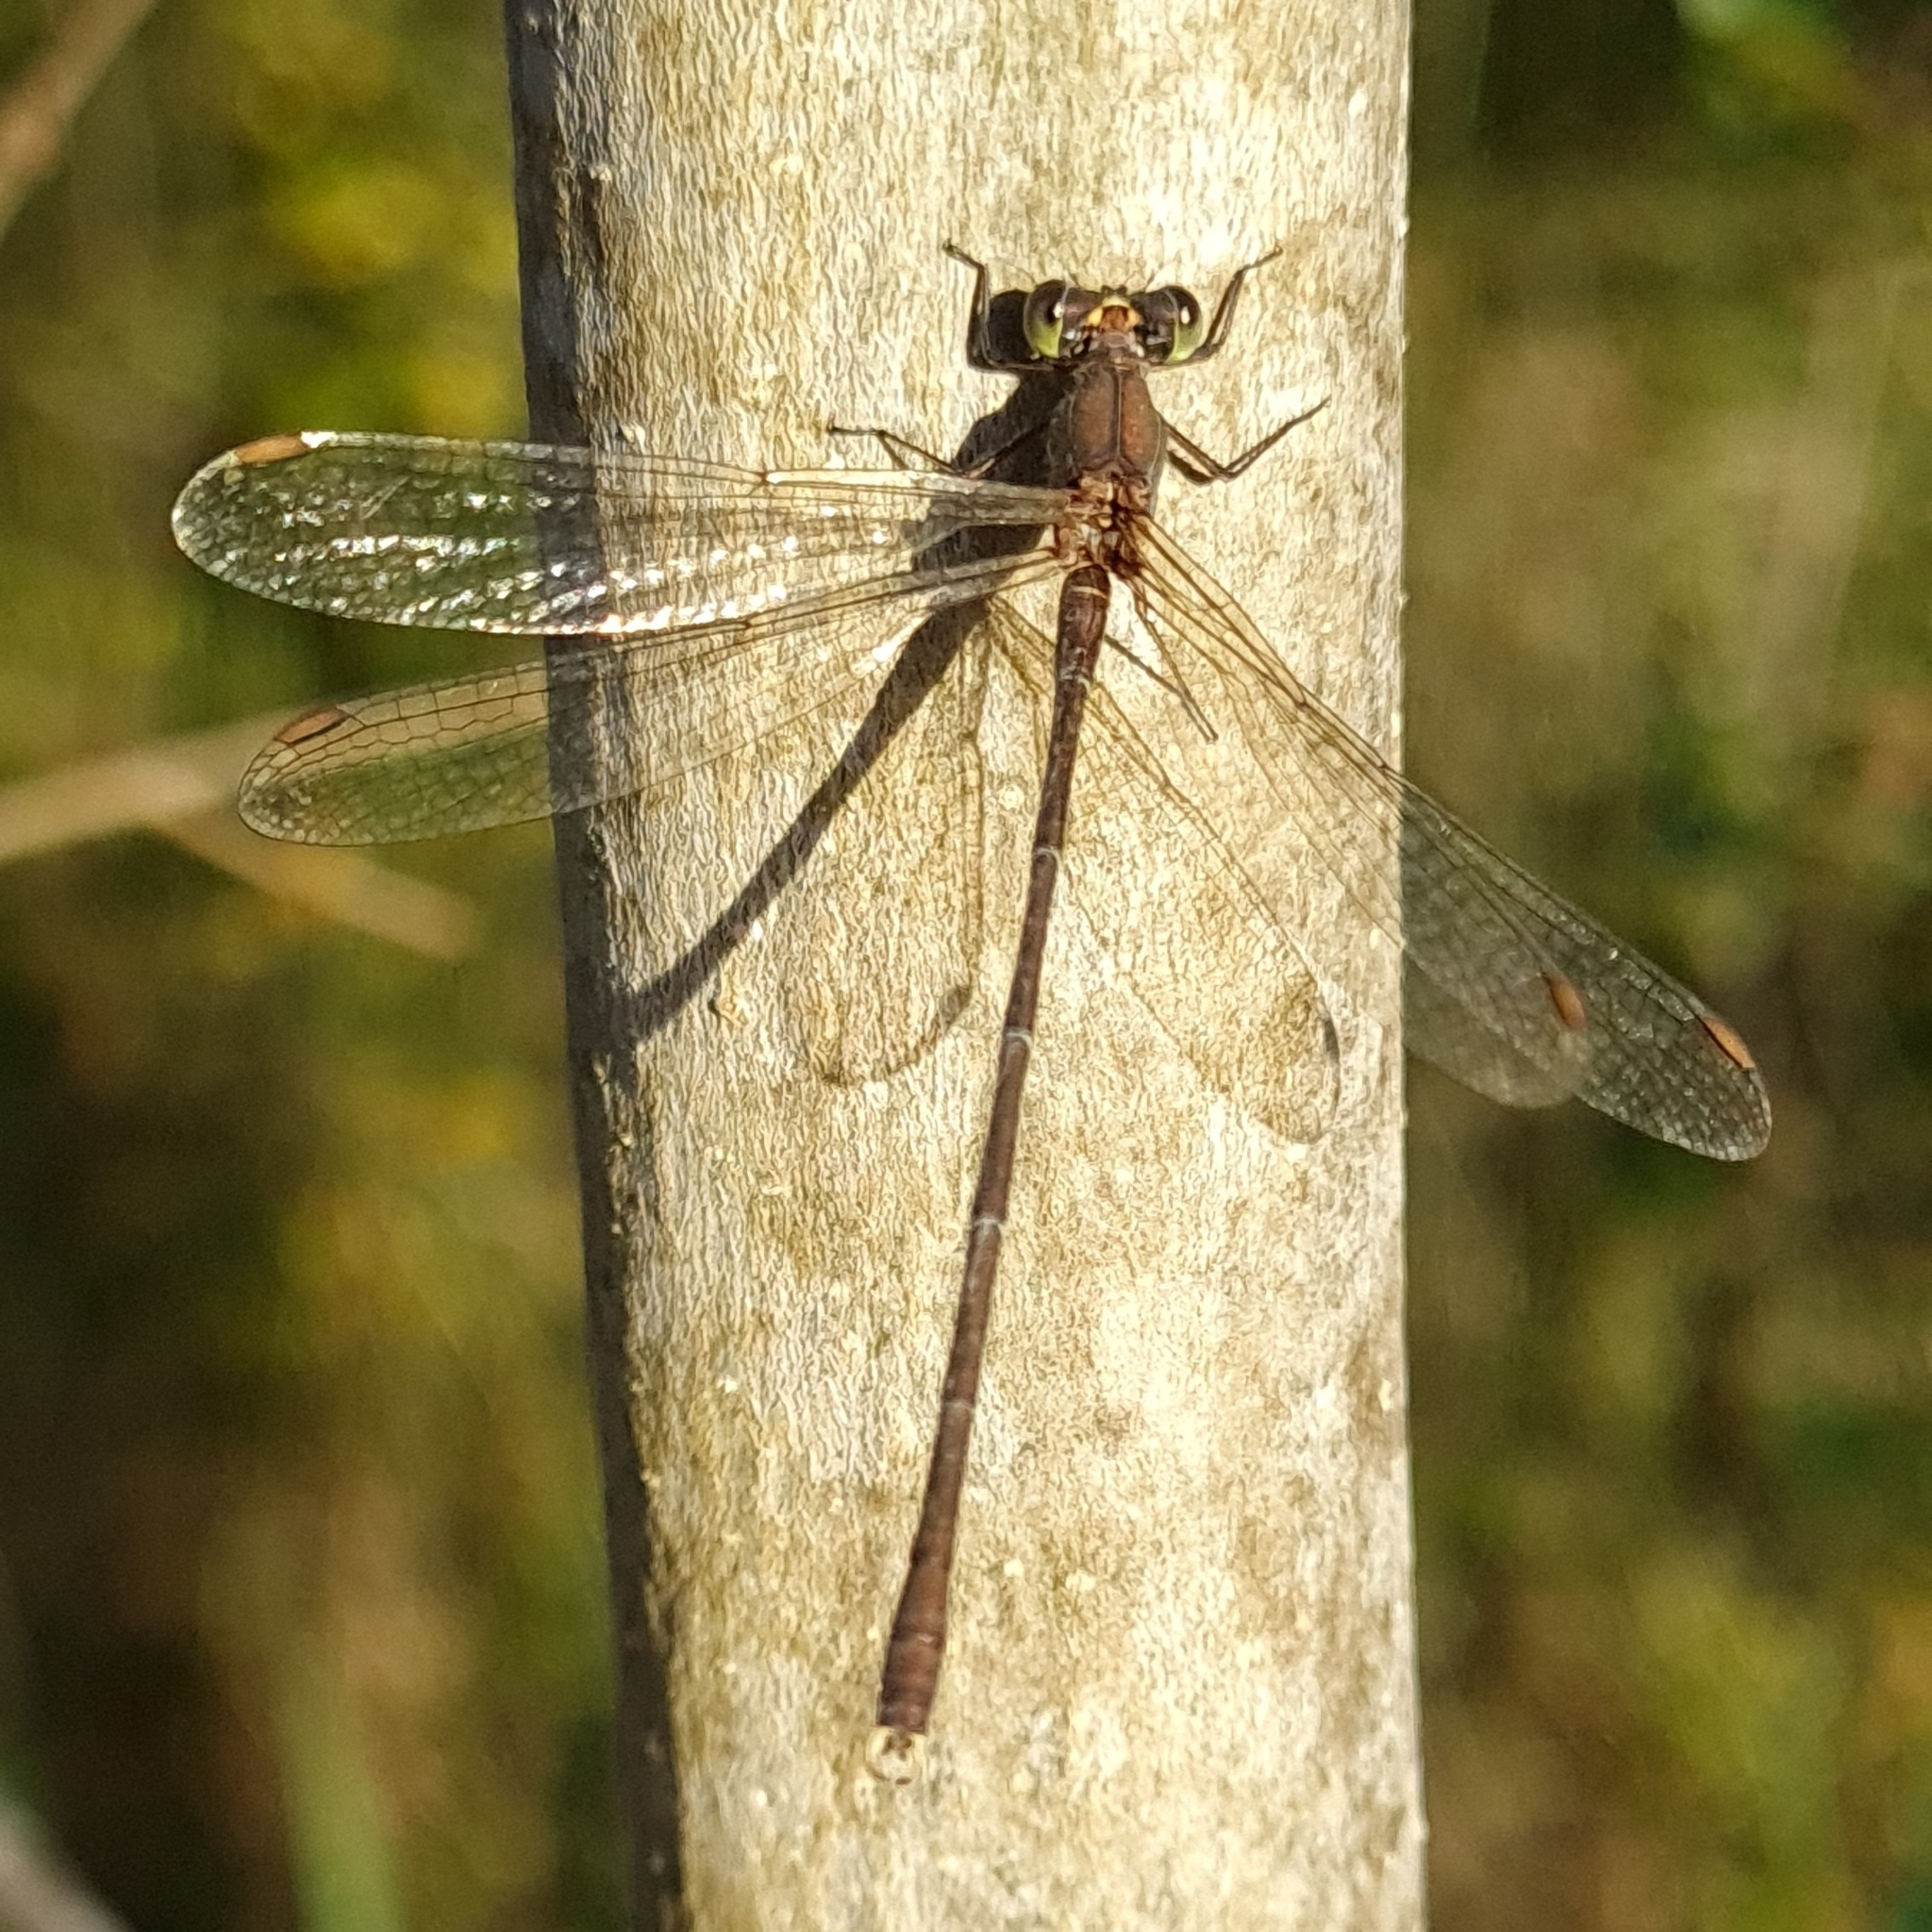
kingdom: Animalia
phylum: Arthropoda
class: Insecta
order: Odonata
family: Lestidae
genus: Chalcolestes
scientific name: Chalcolestes viridis
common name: Green emerald damselfly
